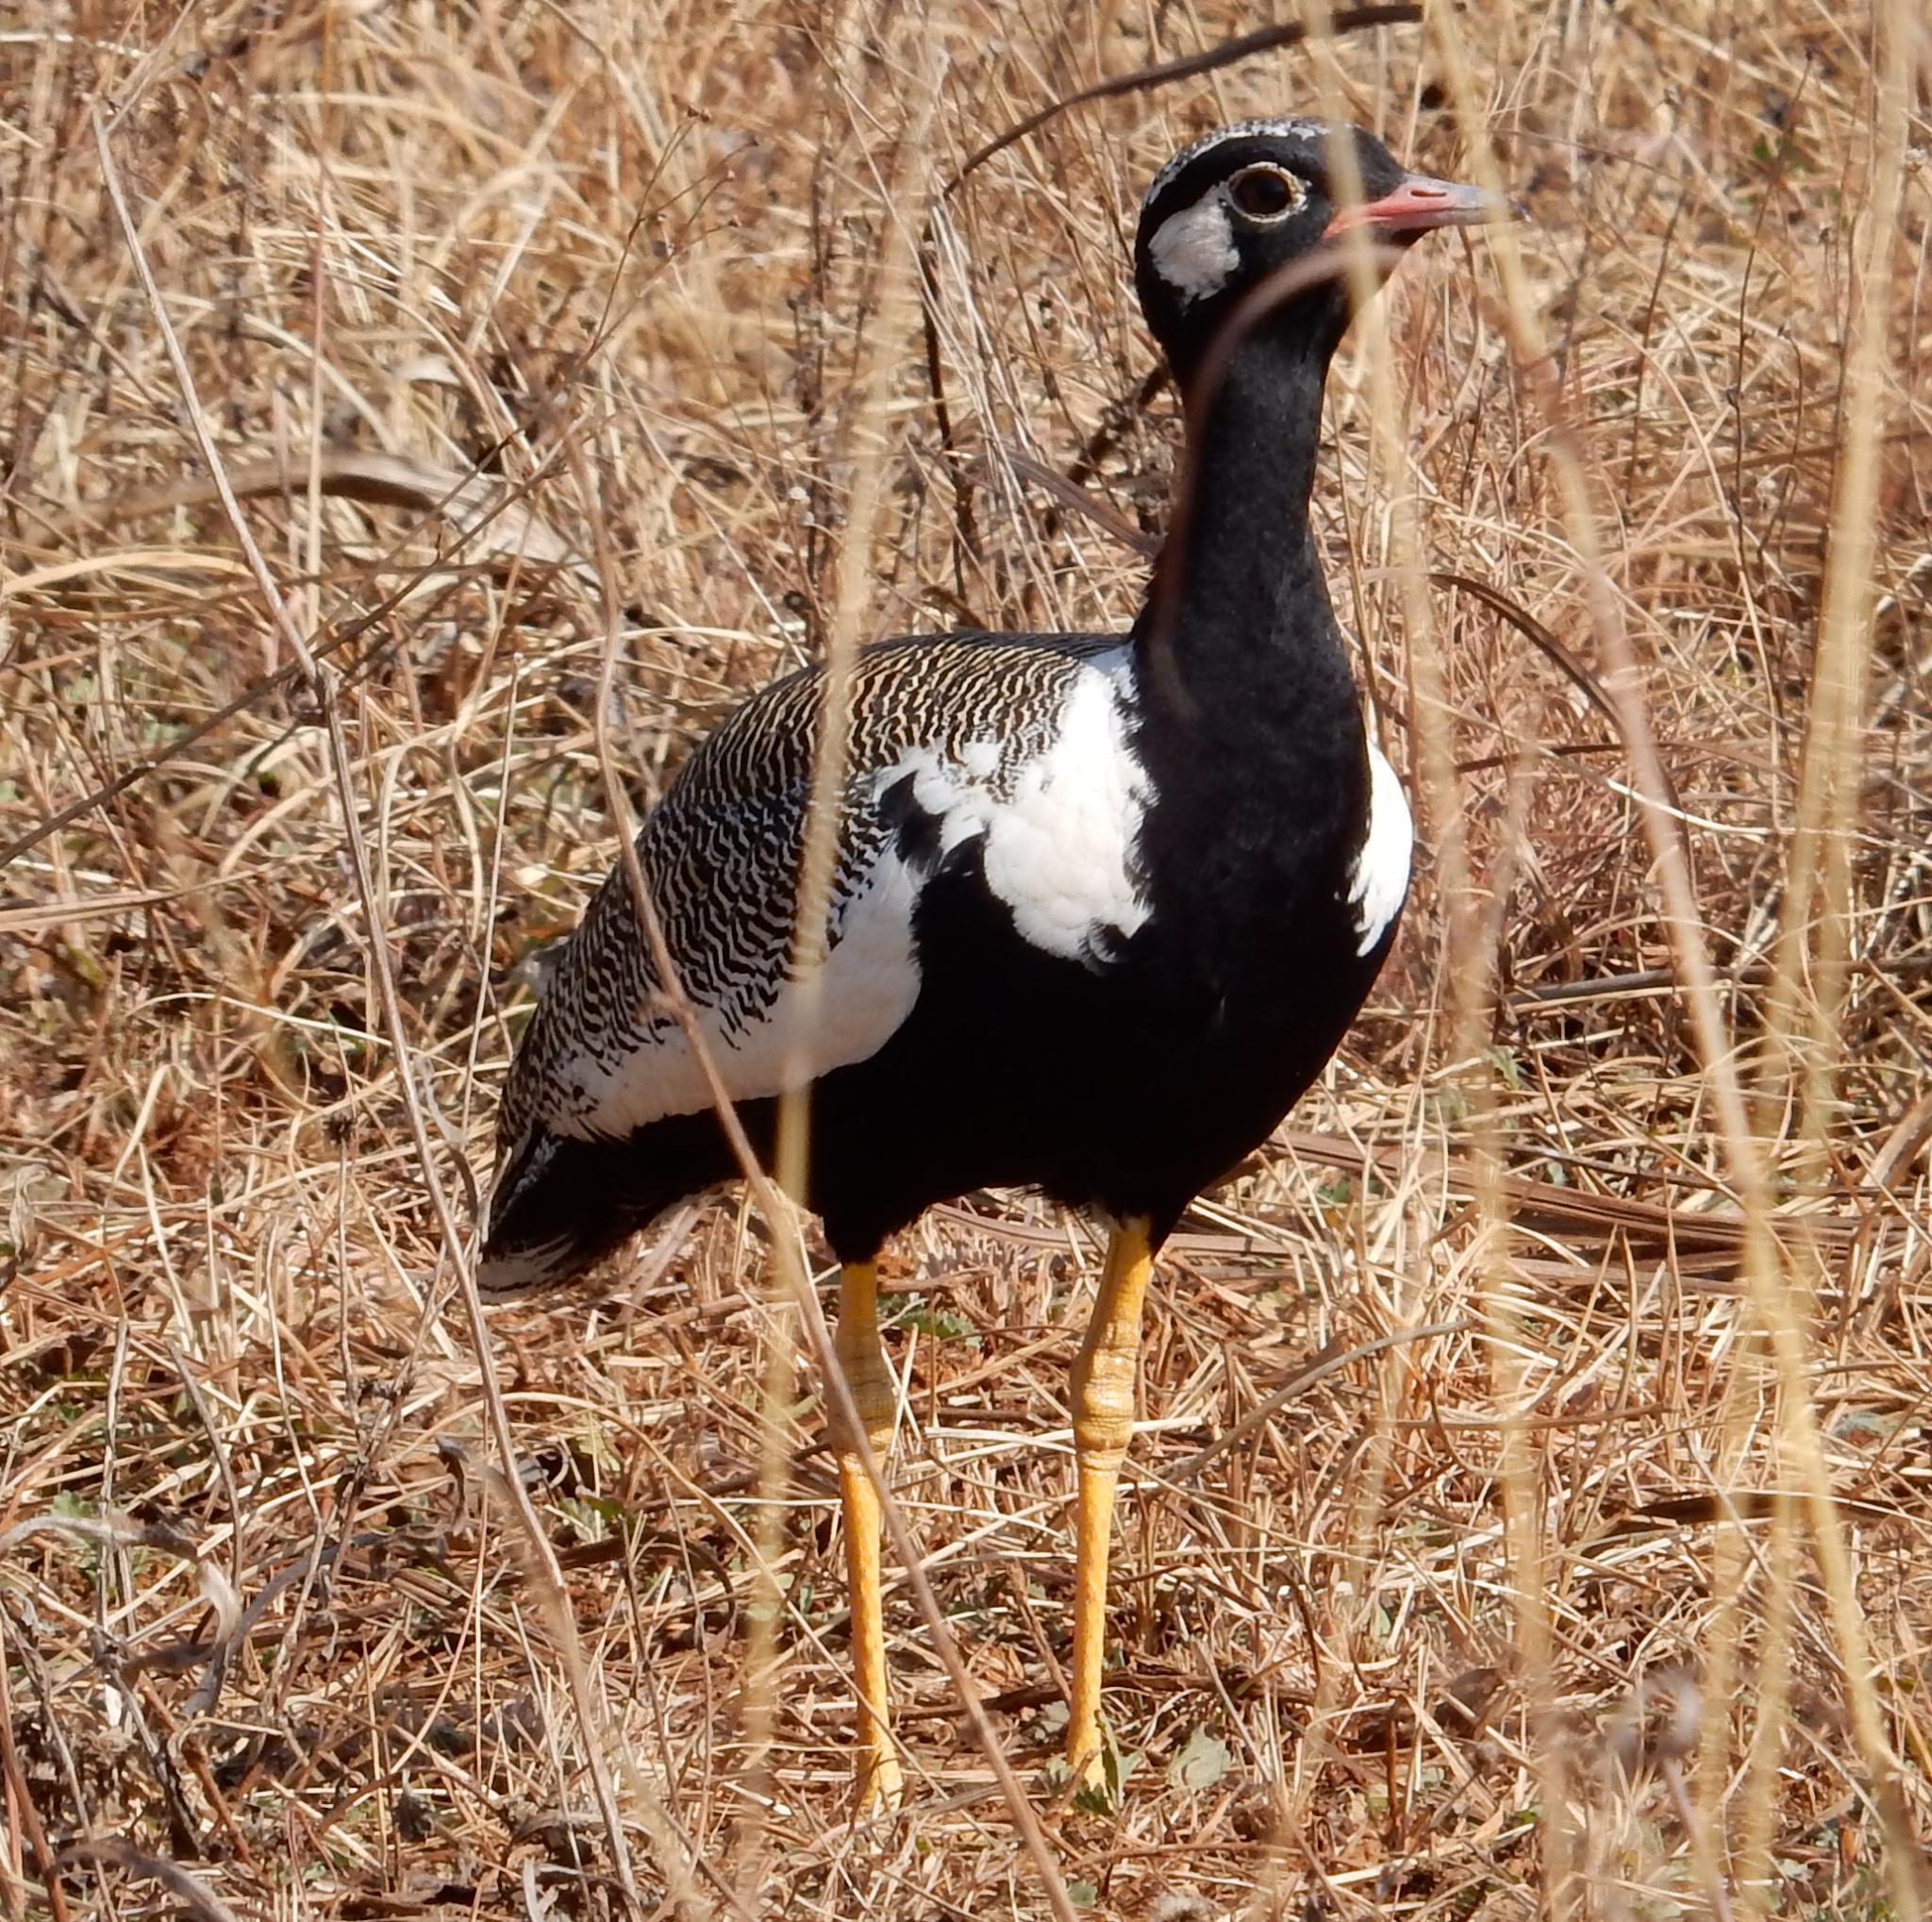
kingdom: Animalia
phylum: Chordata
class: Aves
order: Otidiformes
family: Otididae
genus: Afrotis
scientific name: Afrotis afraoides
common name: Northern black korhaan
